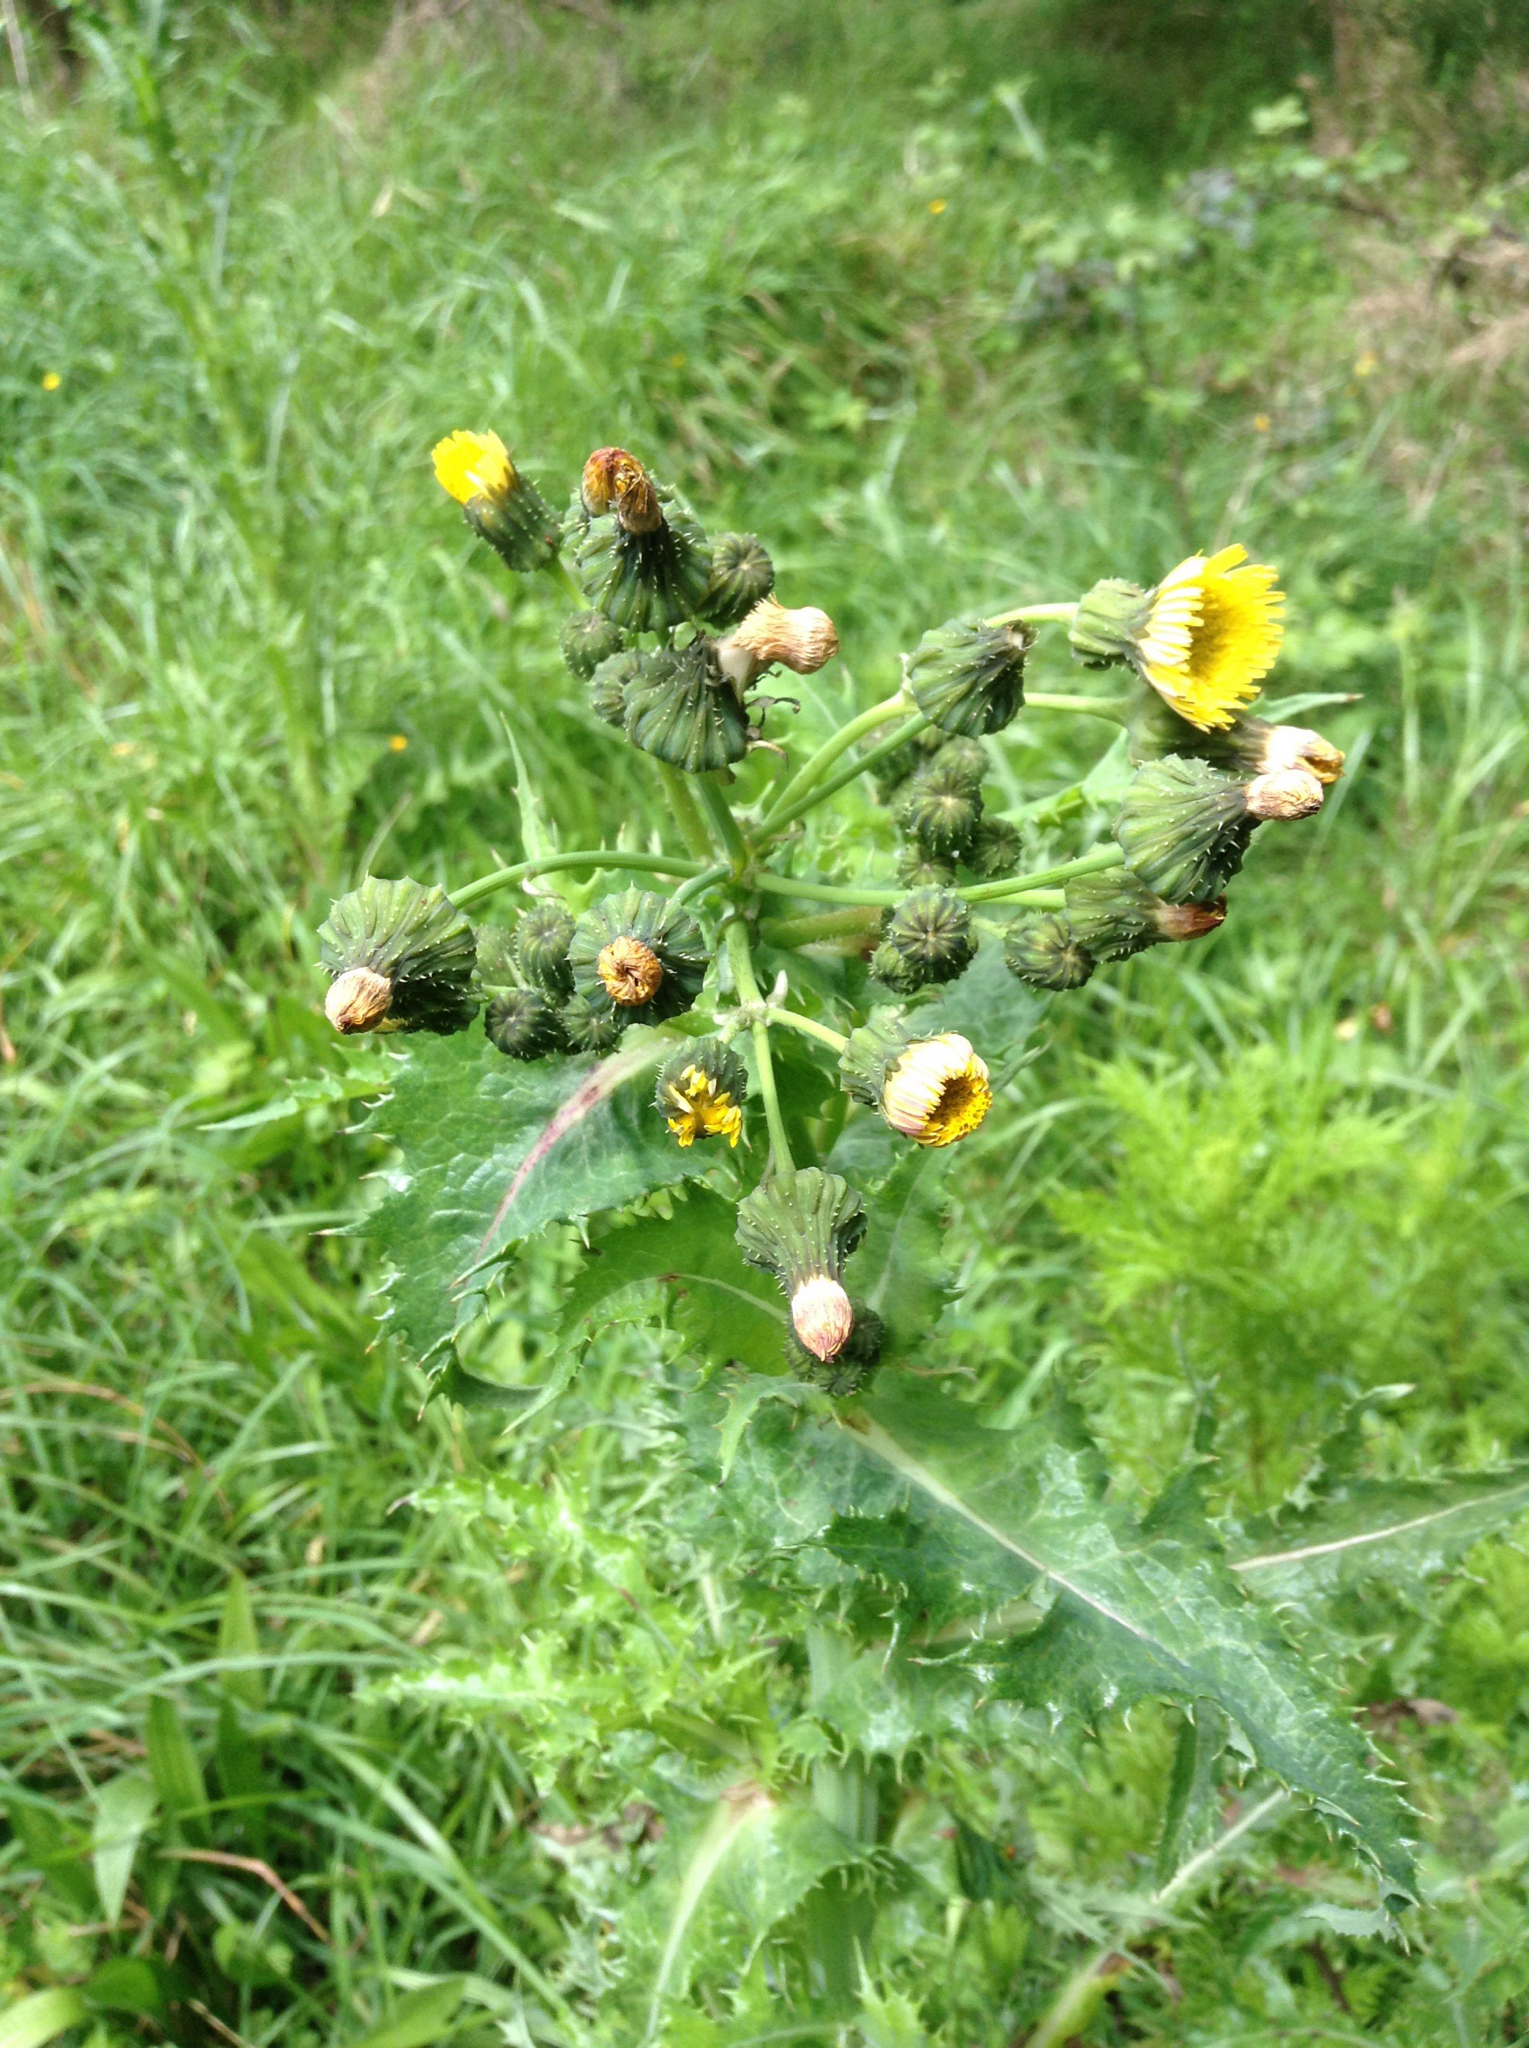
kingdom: Plantae
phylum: Tracheophyta
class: Magnoliopsida
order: Asterales
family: Asteraceae
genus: Sonchus
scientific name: Sonchus asper
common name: Prickly sow-thistle
